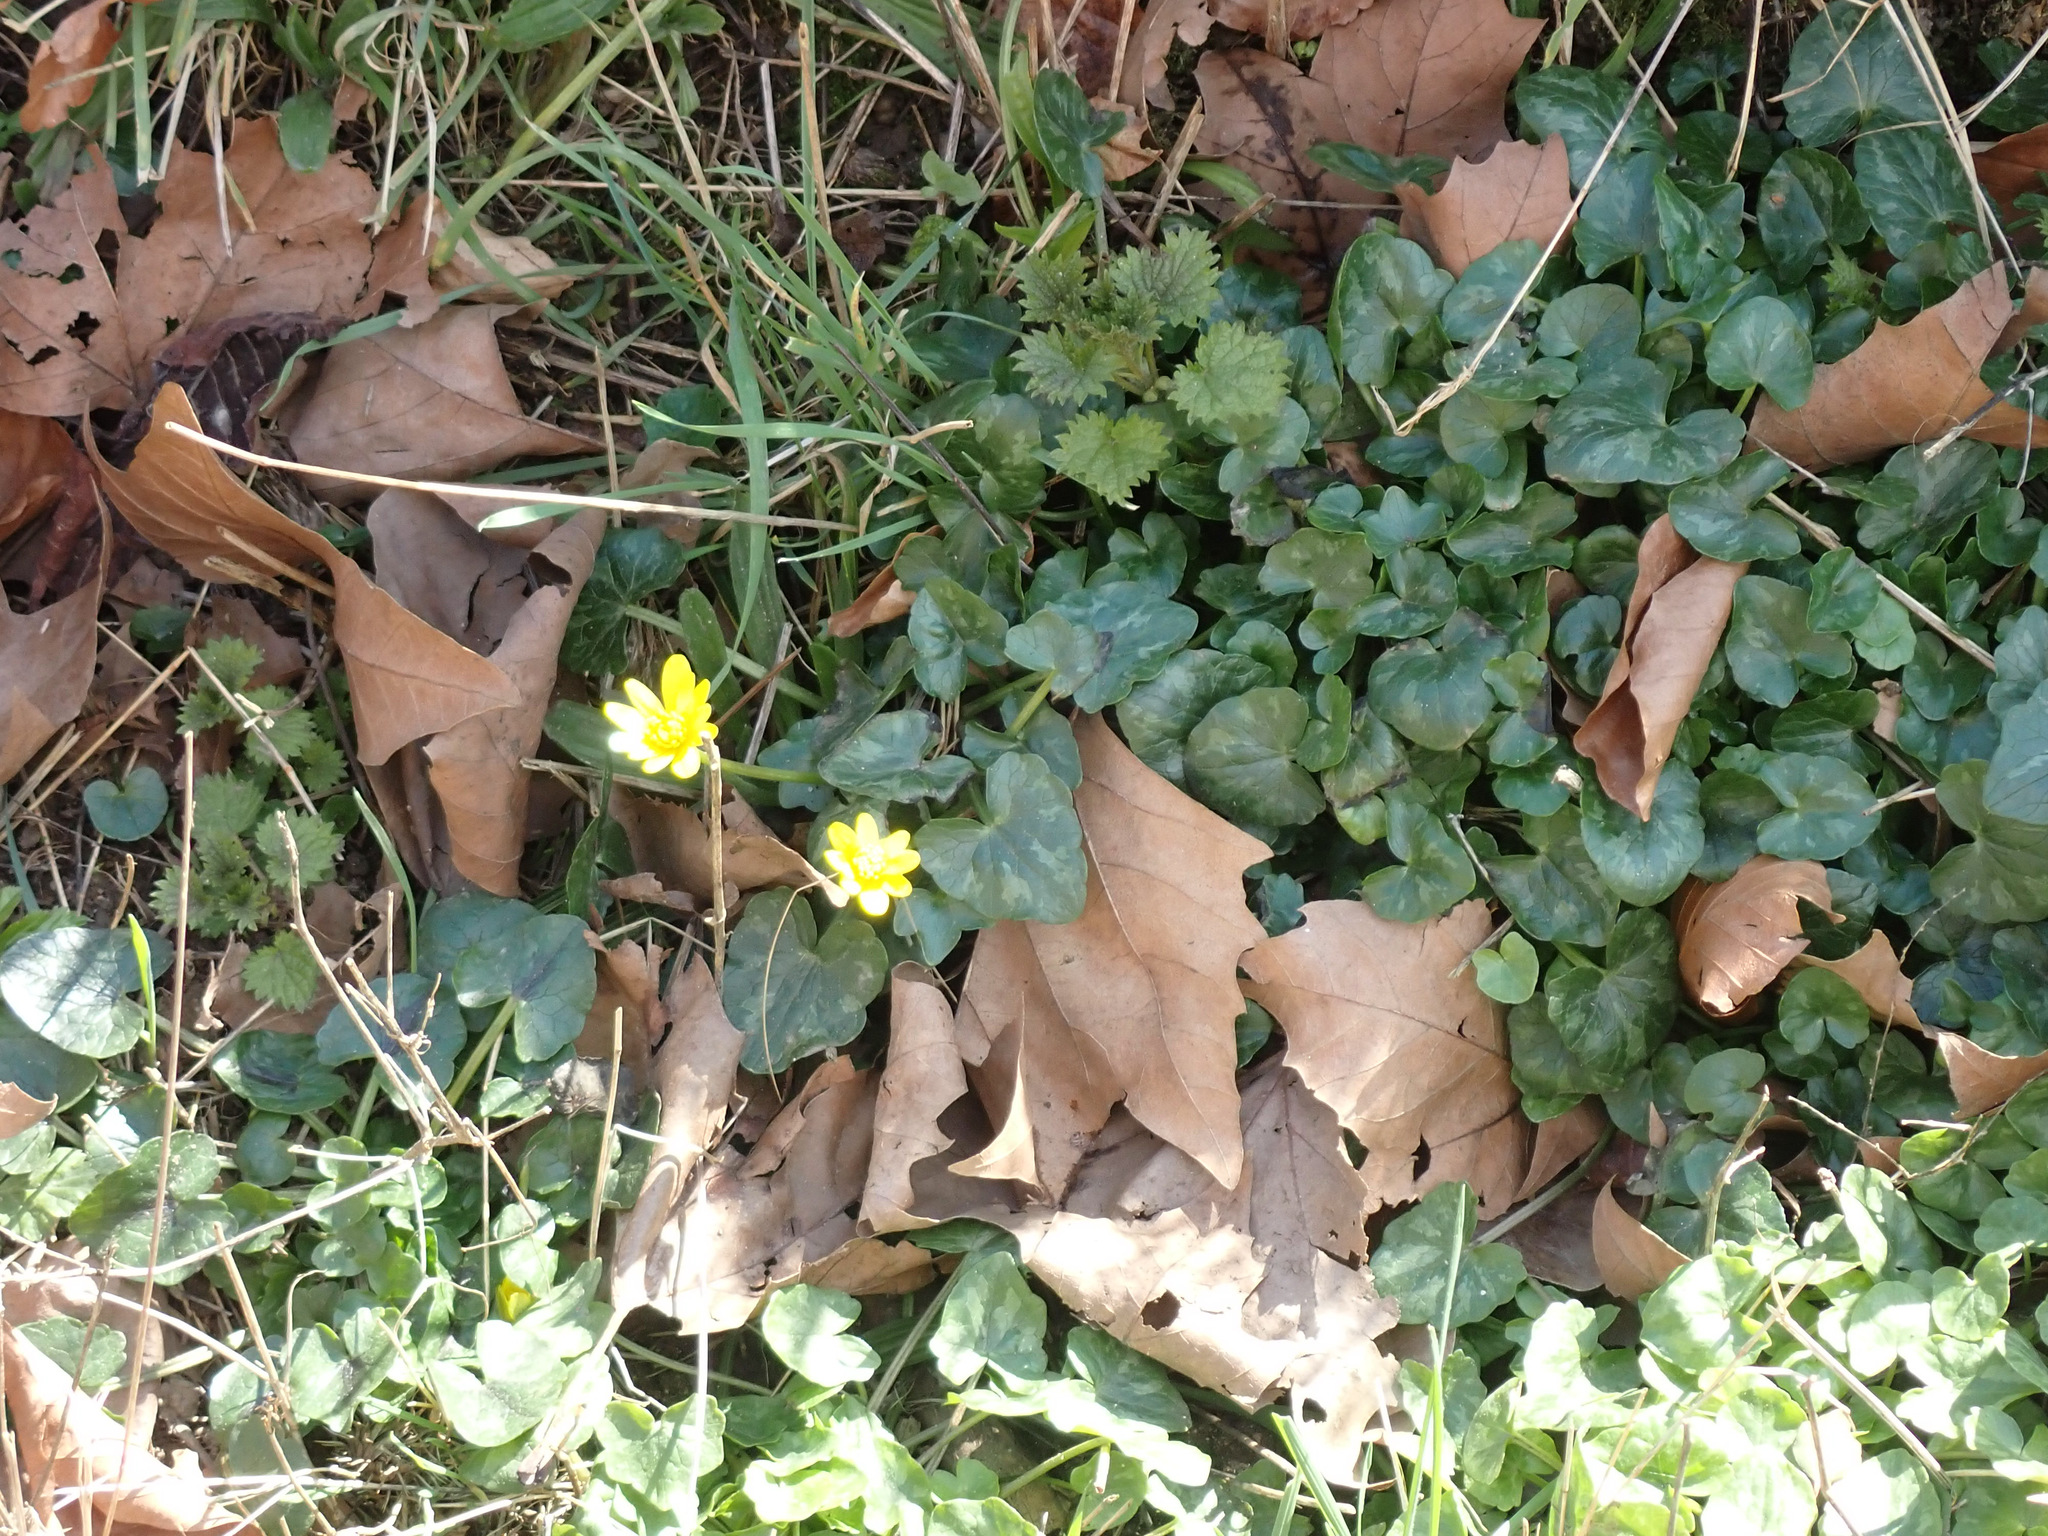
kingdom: Plantae
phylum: Tracheophyta
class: Magnoliopsida
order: Ranunculales
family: Ranunculaceae
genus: Ficaria
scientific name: Ficaria verna
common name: Lesser celandine
